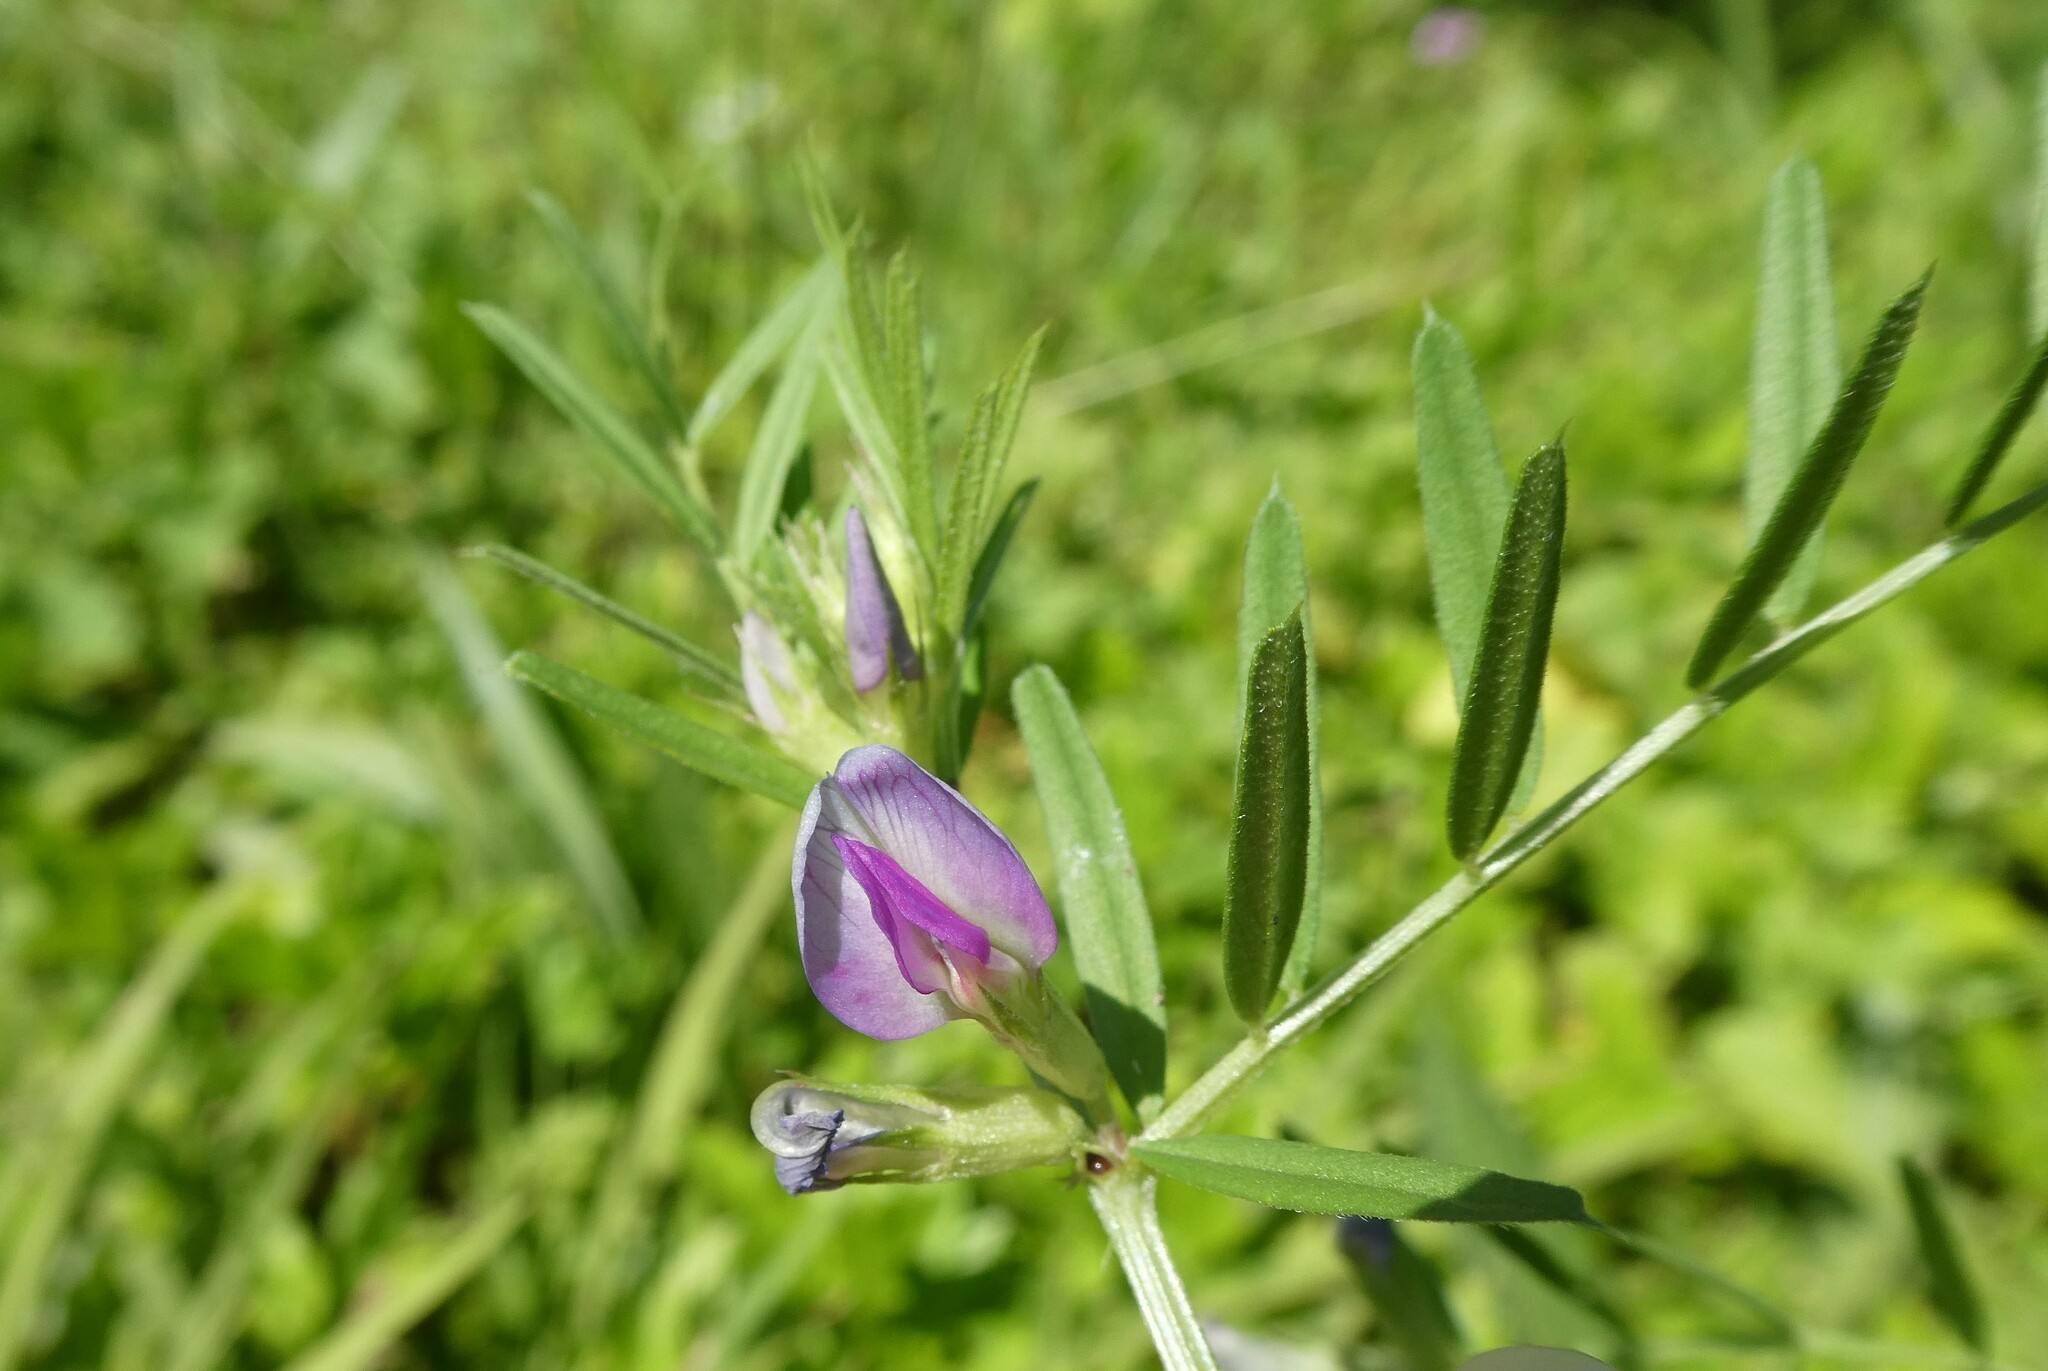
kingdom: Plantae
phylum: Tracheophyta
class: Magnoliopsida
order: Fabales
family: Fabaceae
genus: Vicia
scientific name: Vicia sativa
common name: Garden vetch
